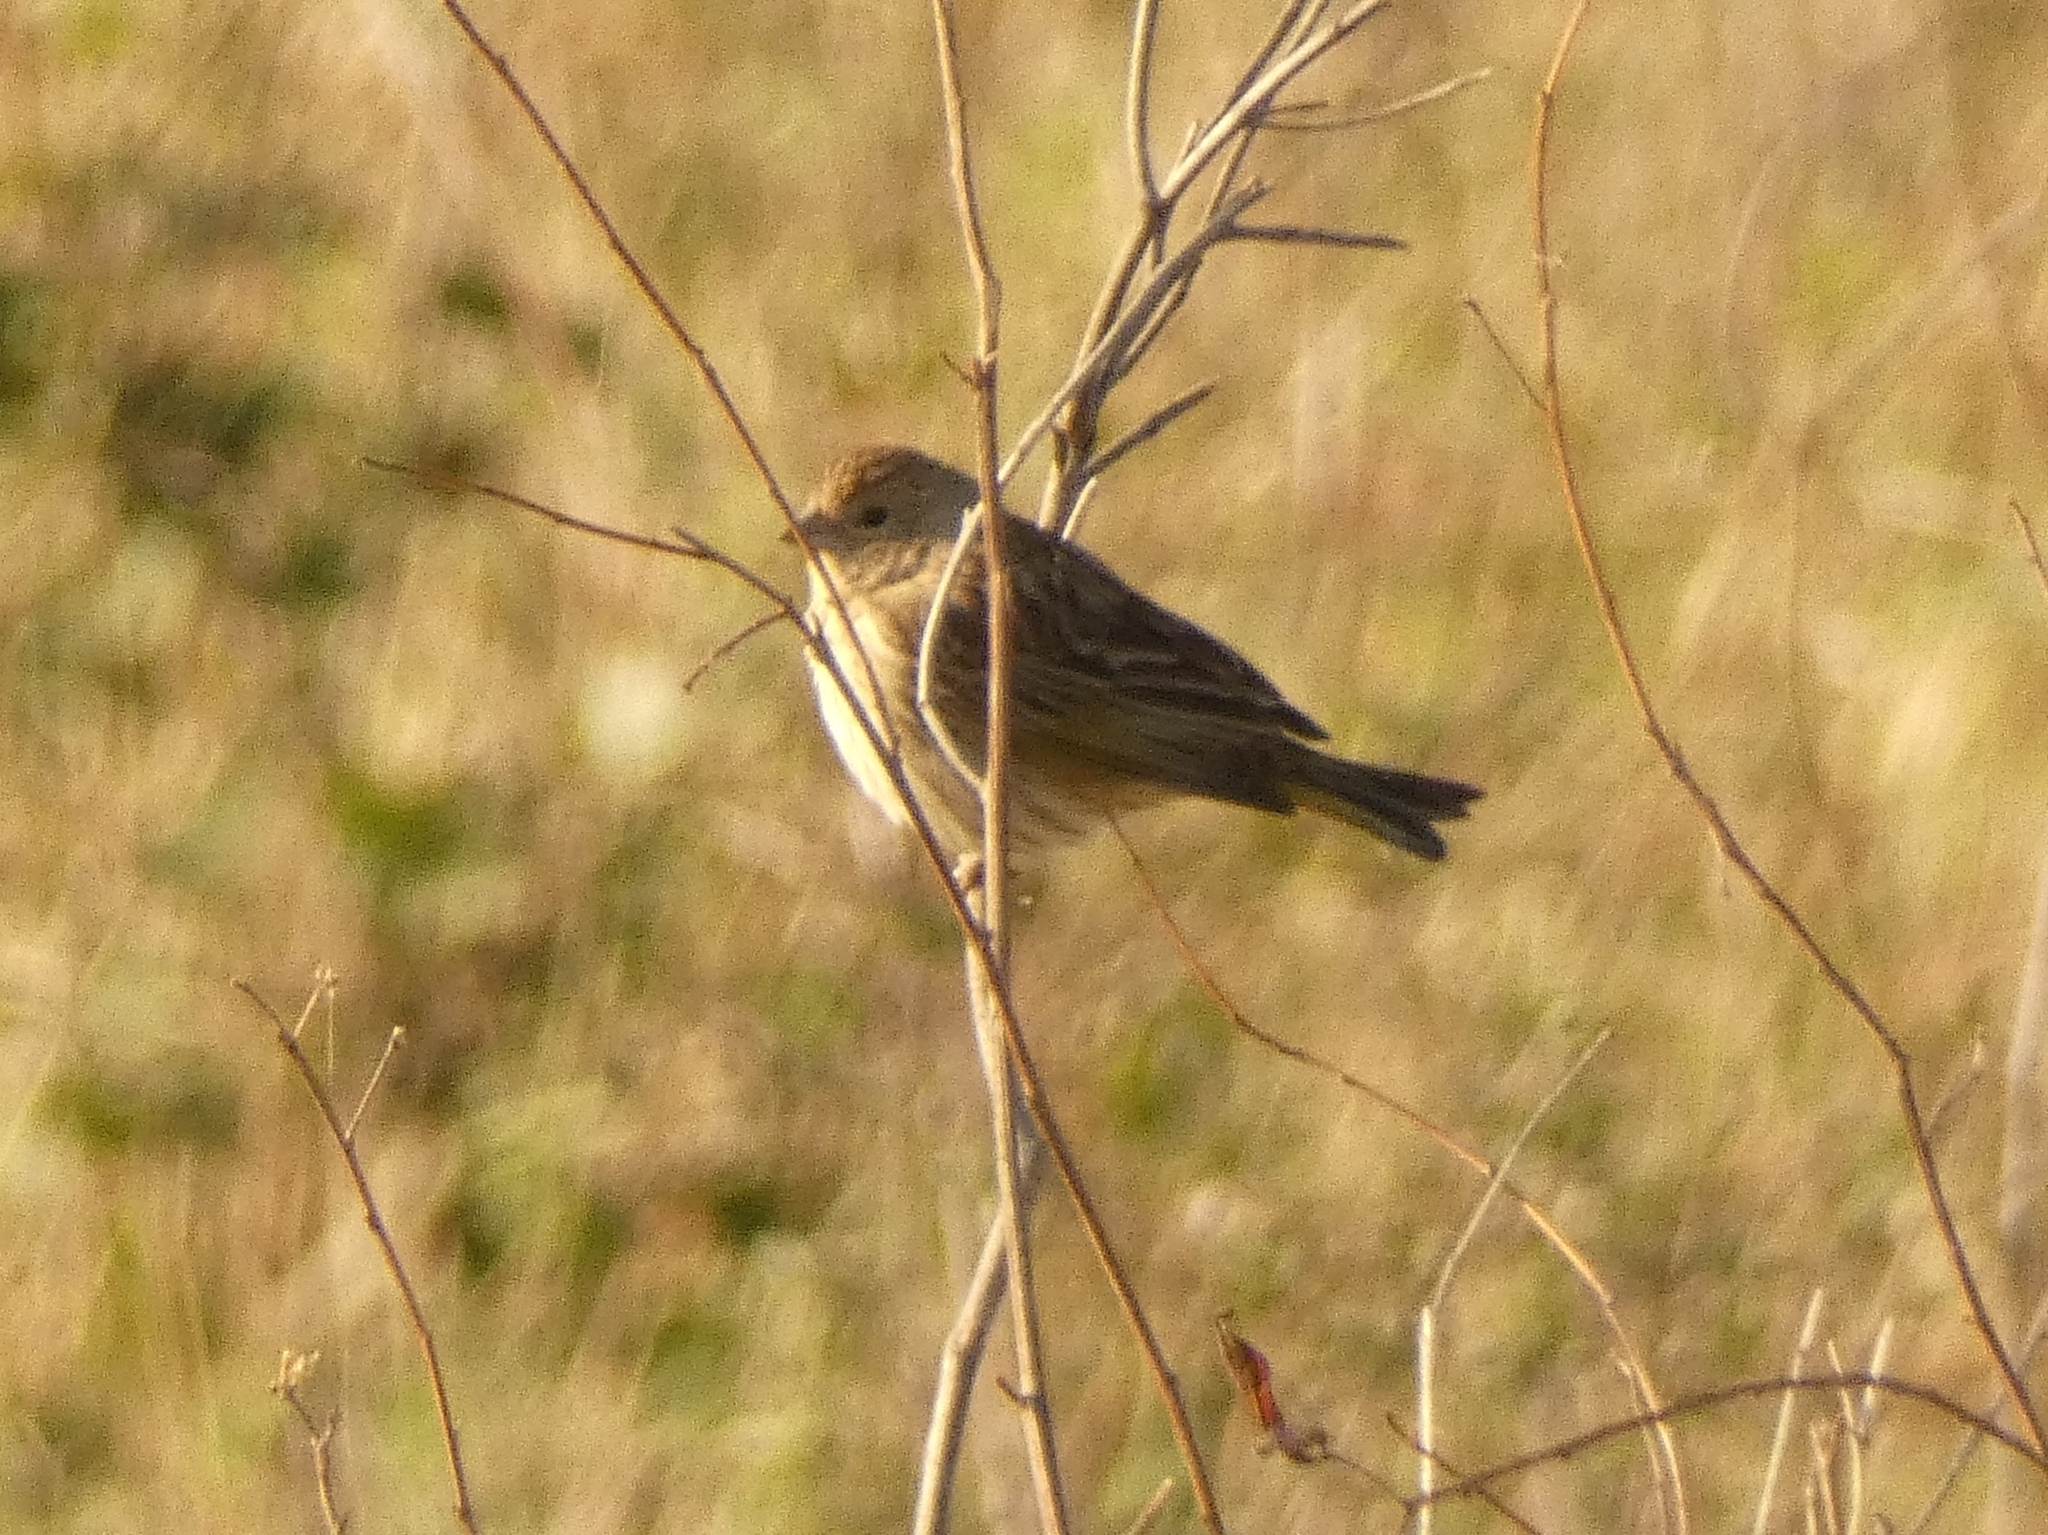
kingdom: Animalia
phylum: Chordata
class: Aves
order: Passeriformes
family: Thraupidae
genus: Sicalis
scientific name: Sicalis flaveola
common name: Saffron finch
